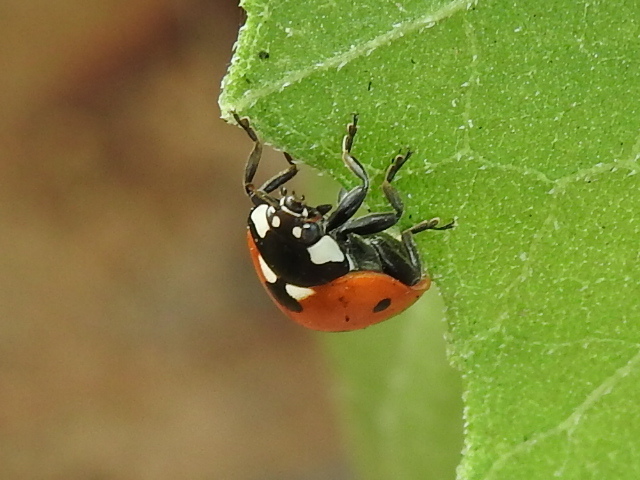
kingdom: Animalia
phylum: Arthropoda
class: Insecta
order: Coleoptera
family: Coccinellidae
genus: Coccinella
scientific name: Coccinella septempunctata
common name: Sevenspotted lady beetle
